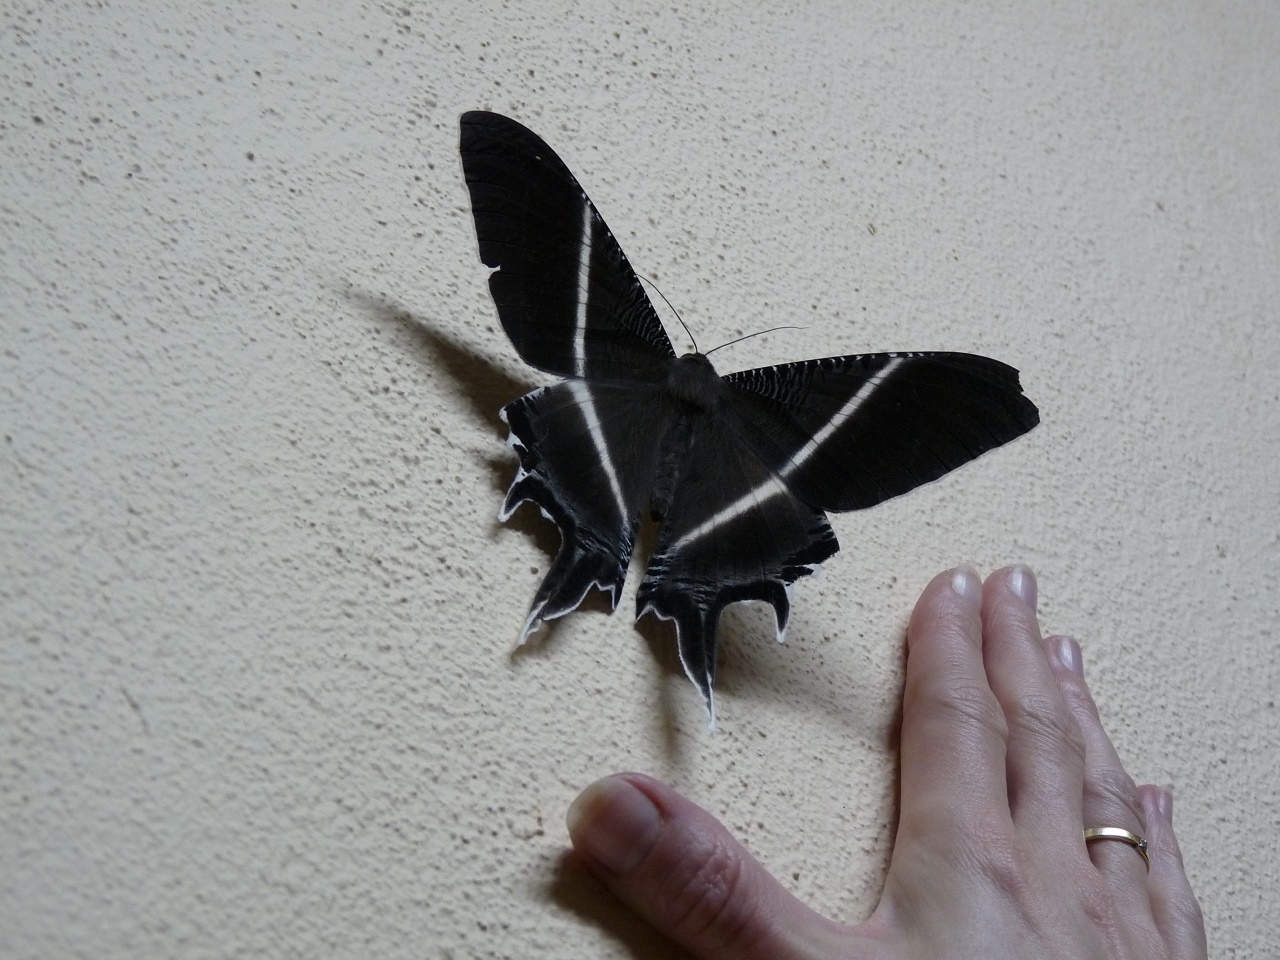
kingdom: Animalia
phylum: Arthropoda
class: Insecta
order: Lepidoptera
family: Uraniidae
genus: Lyssa
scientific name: Lyssa menoetius
